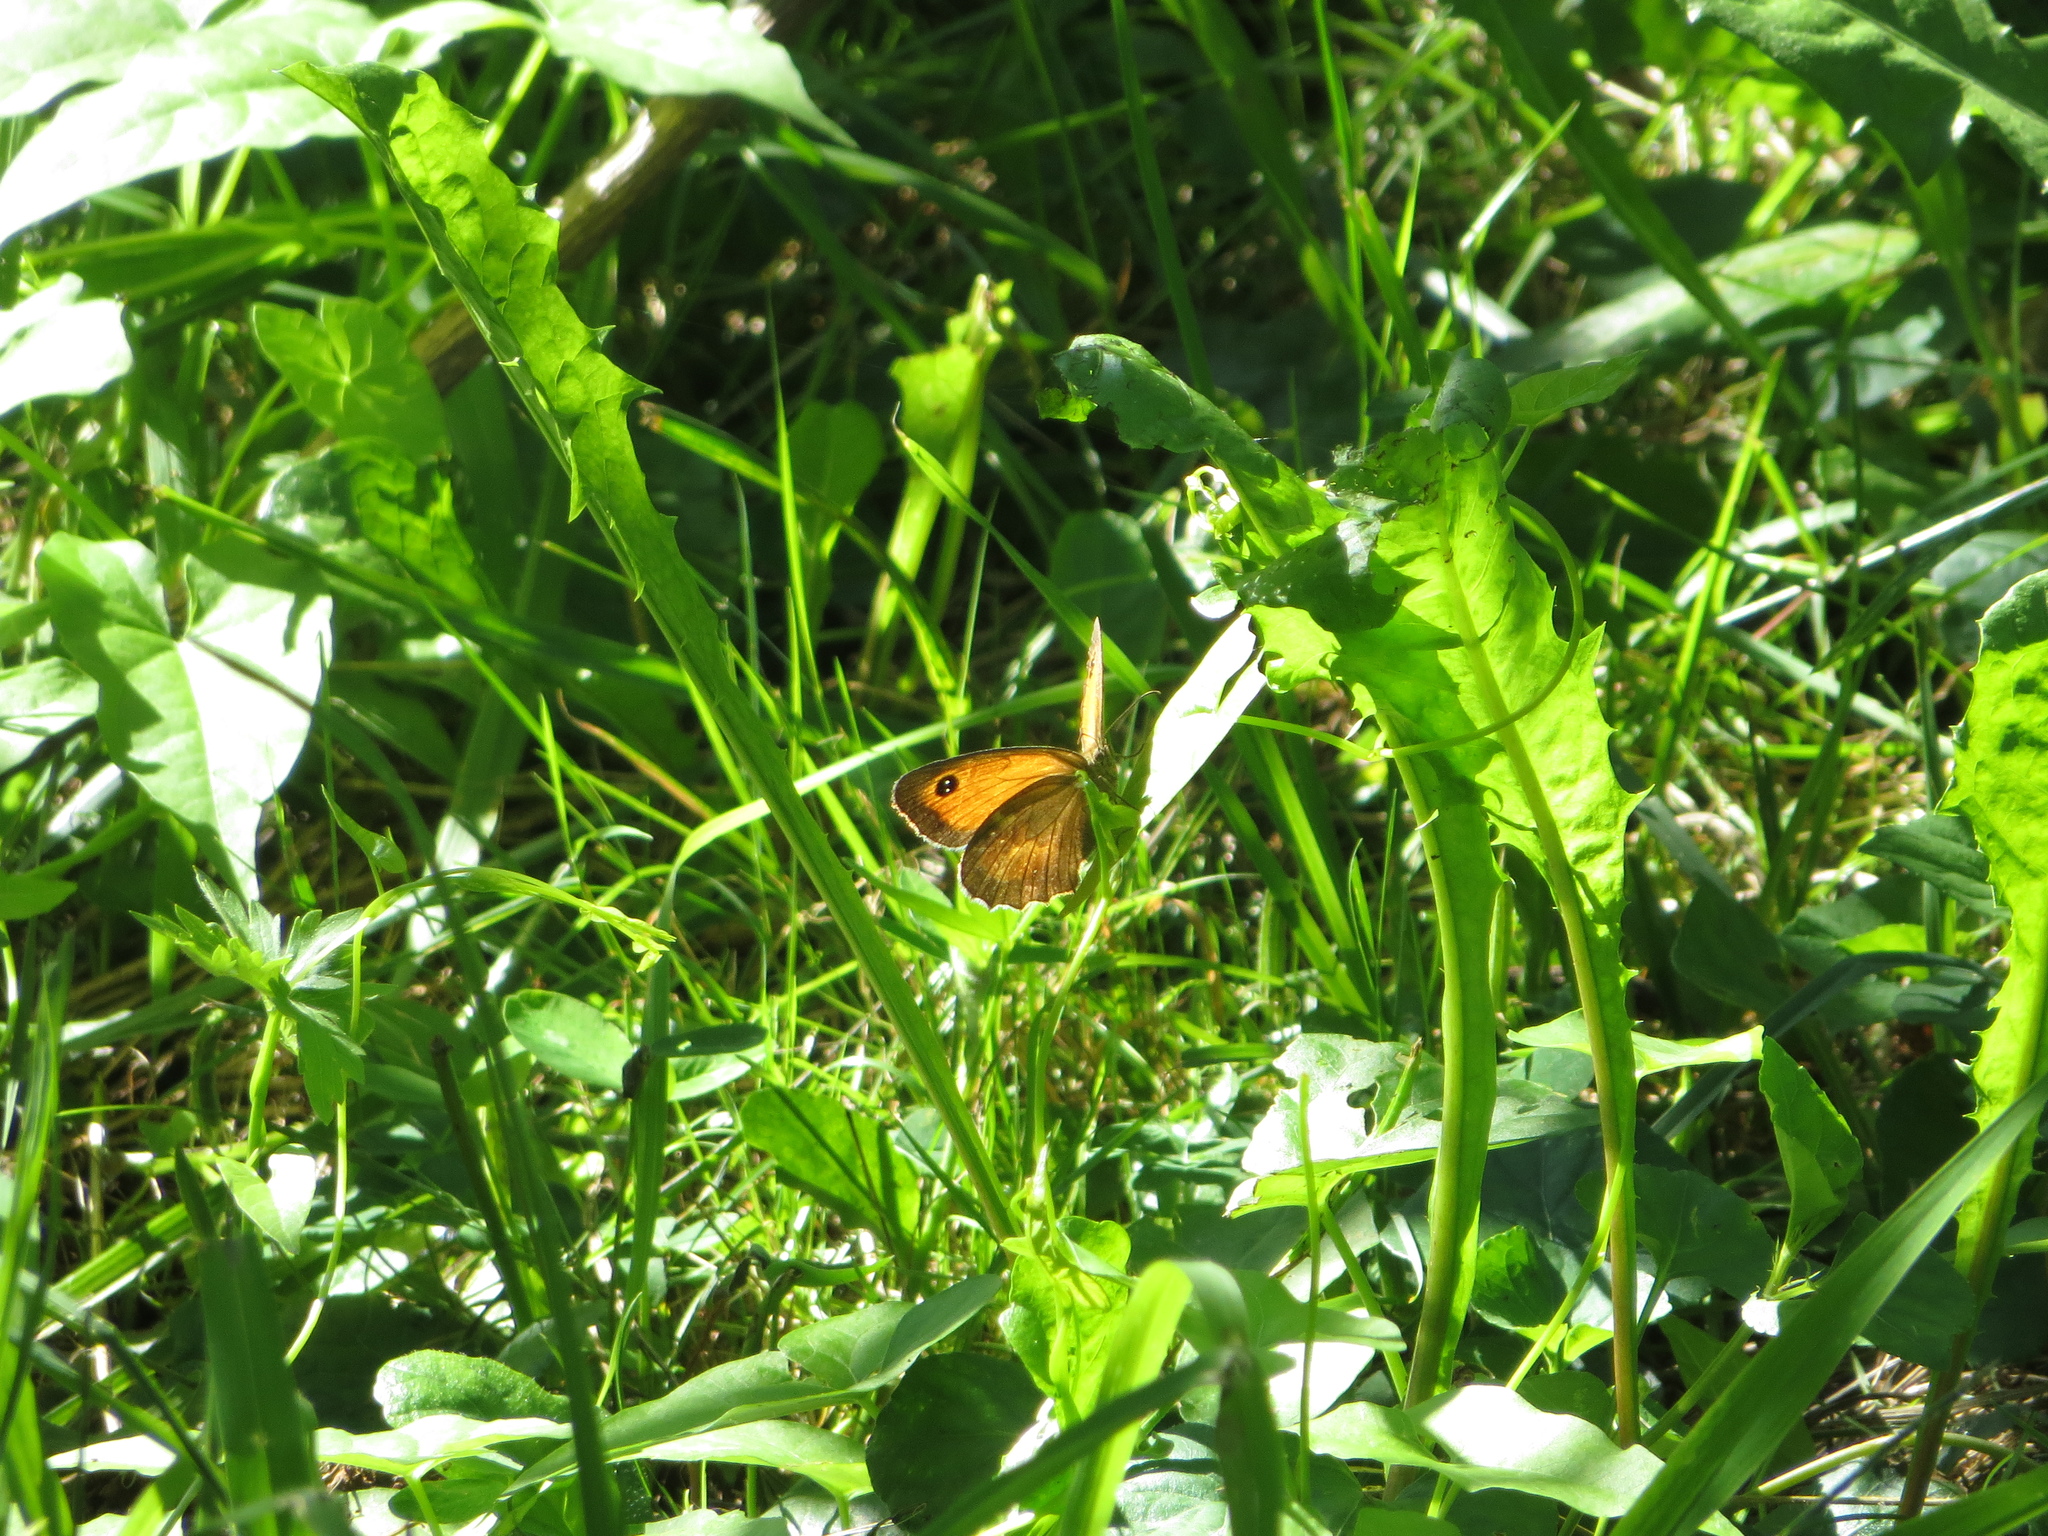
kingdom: Animalia
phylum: Arthropoda
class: Insecta
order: Lepidoptera
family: Nymphalidae
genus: Pyronia
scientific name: Pyronia tithonus
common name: Gatekeeper
